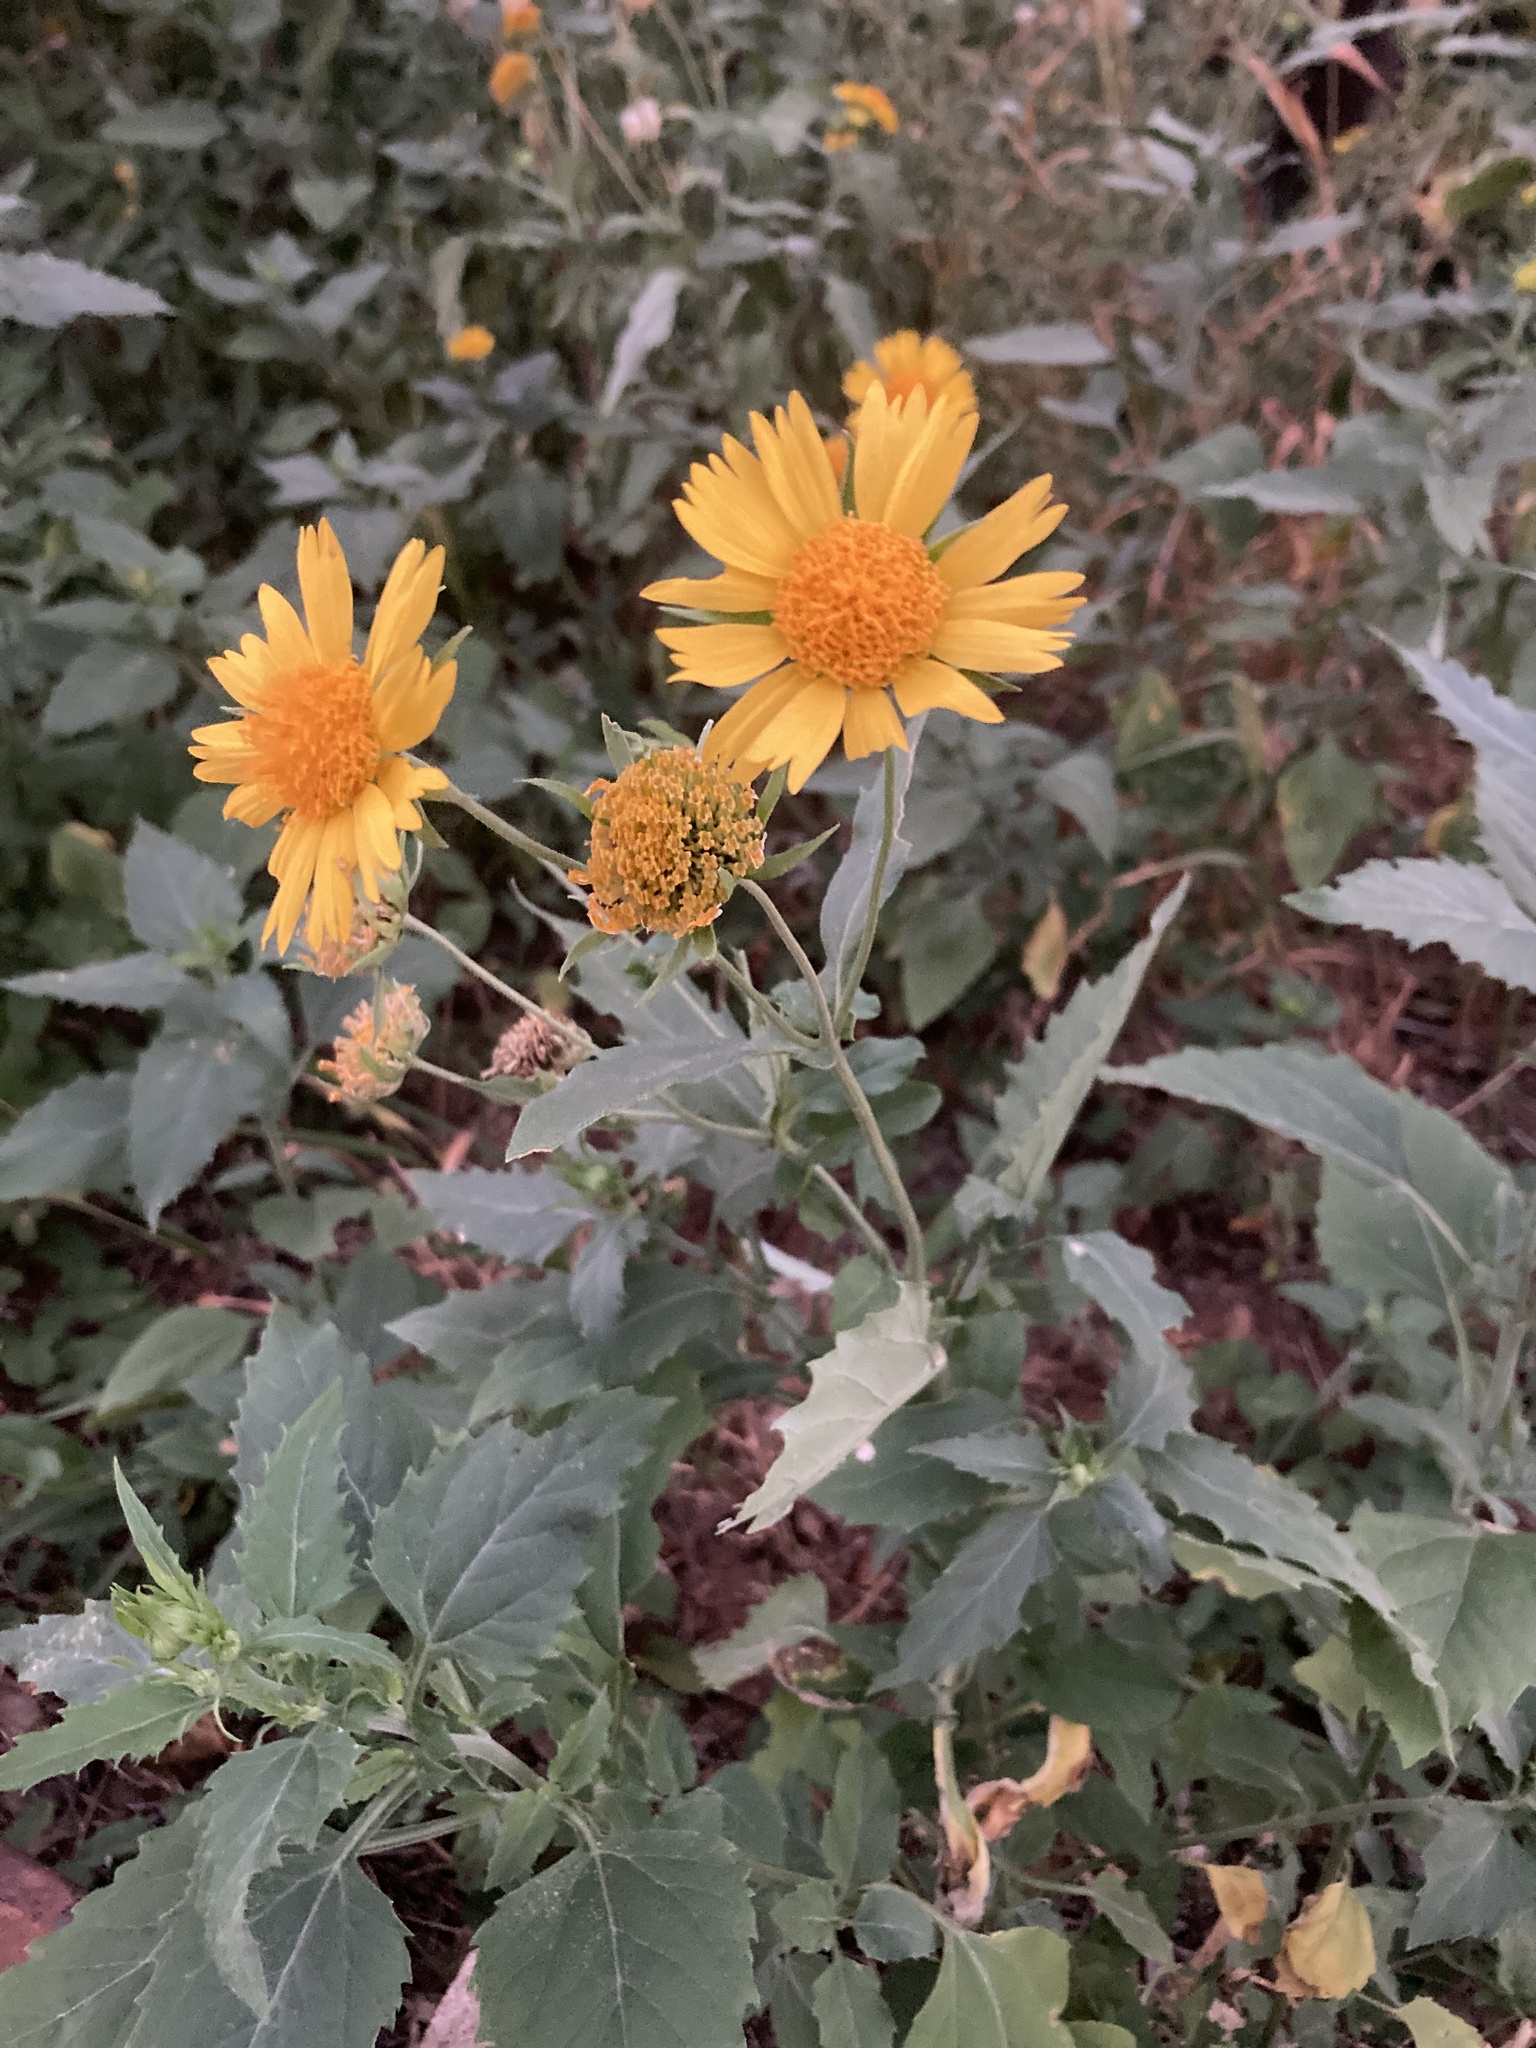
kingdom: Plantae
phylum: Tracheophyta
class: Magnoliopsida
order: Asterales
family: Asteraceae
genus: Verbesina
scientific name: Verbesina encelioides
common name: Golden crownbeard
